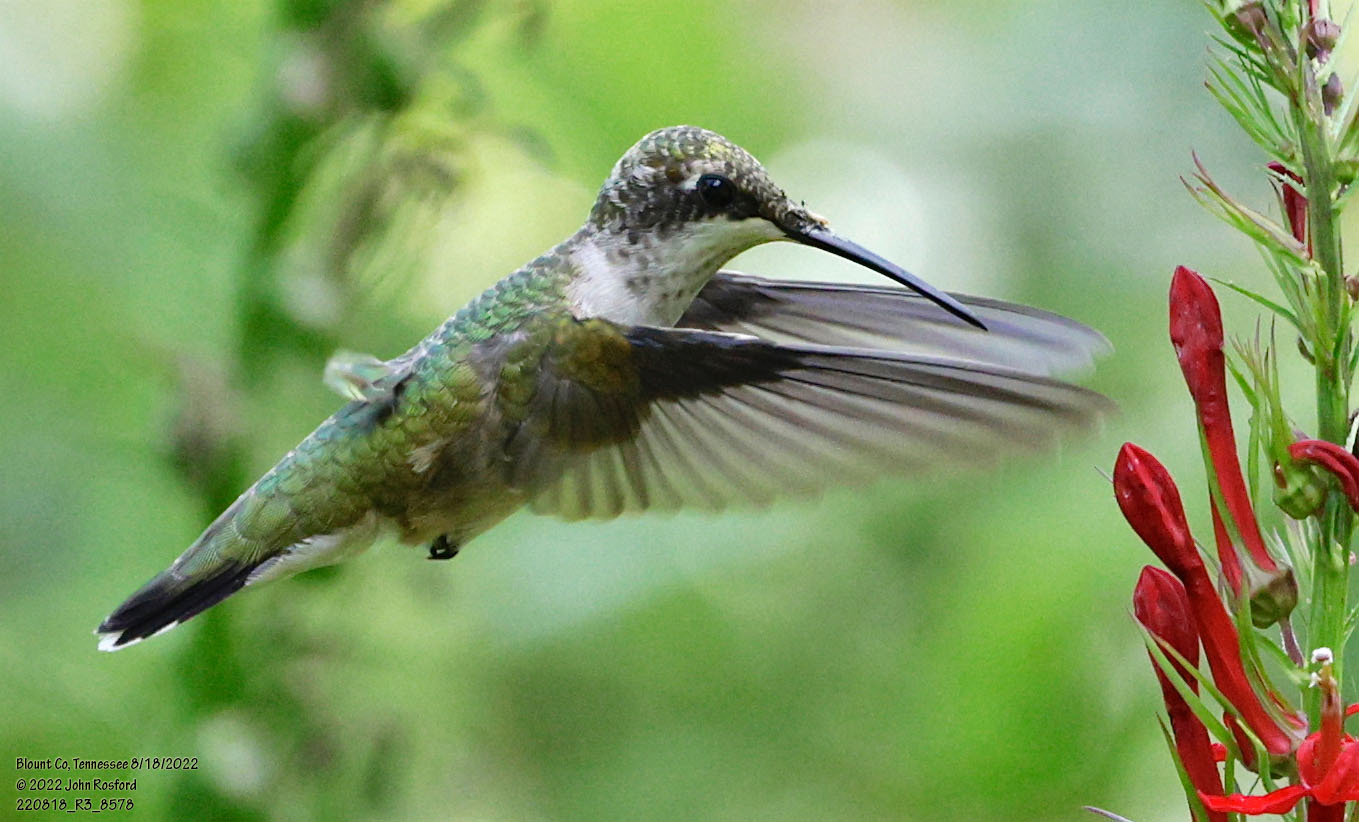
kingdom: Animalia
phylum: Chordata
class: Aves
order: Apodiformes
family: Trochilidae
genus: Archilochus
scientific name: Archilochus colubris
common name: Ruby-throated hummingbird
